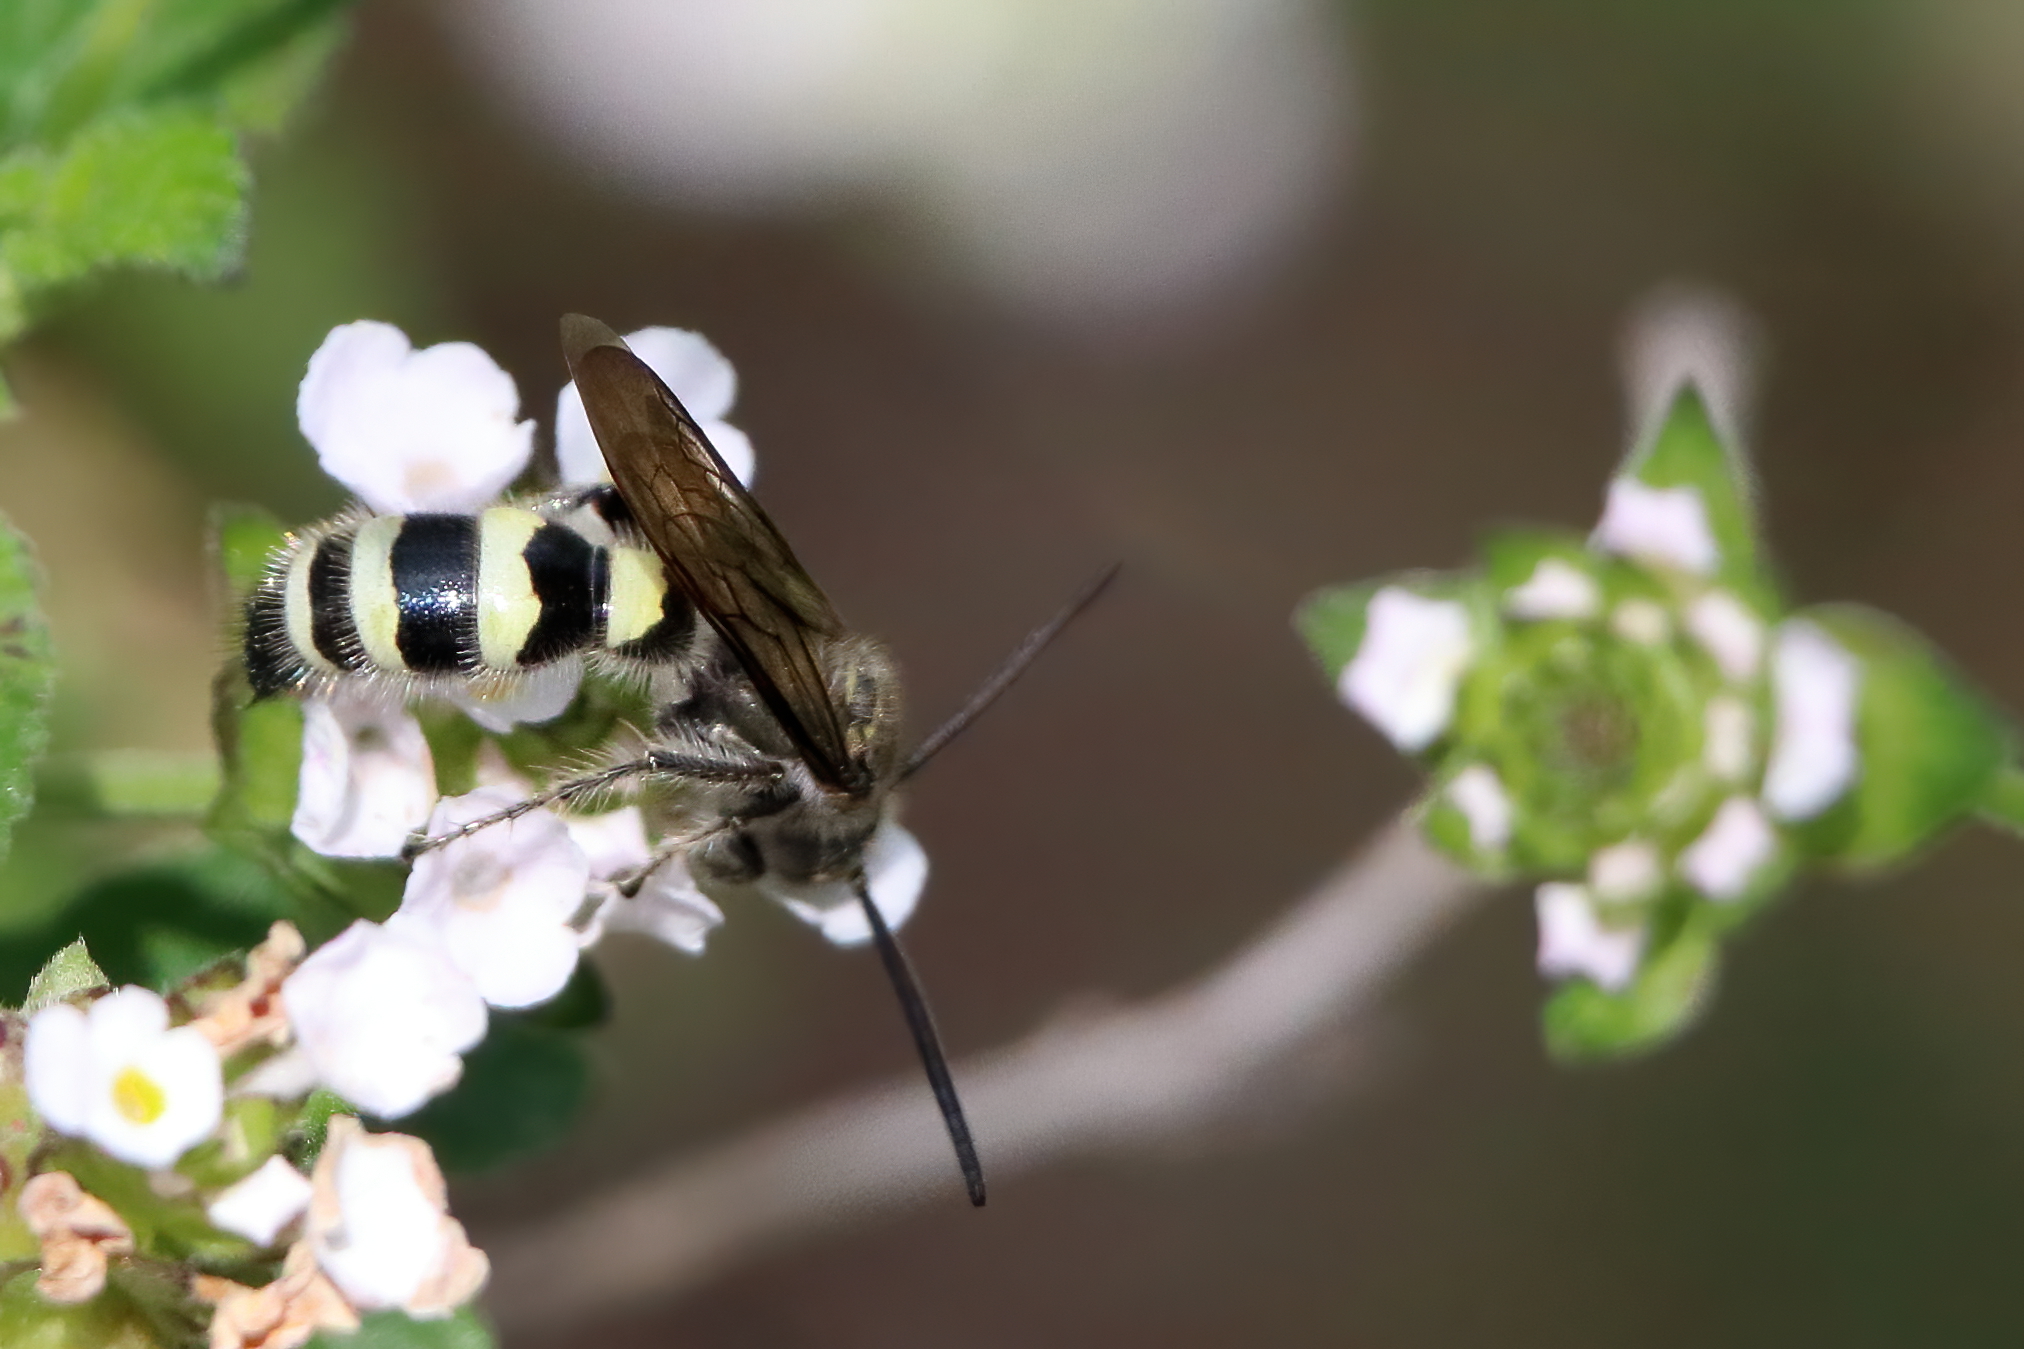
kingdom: Animalia
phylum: Arthropoda
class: Insecta
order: Hymenoptera
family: Scoliidae
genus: Dielis
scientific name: Dielis tolteca
